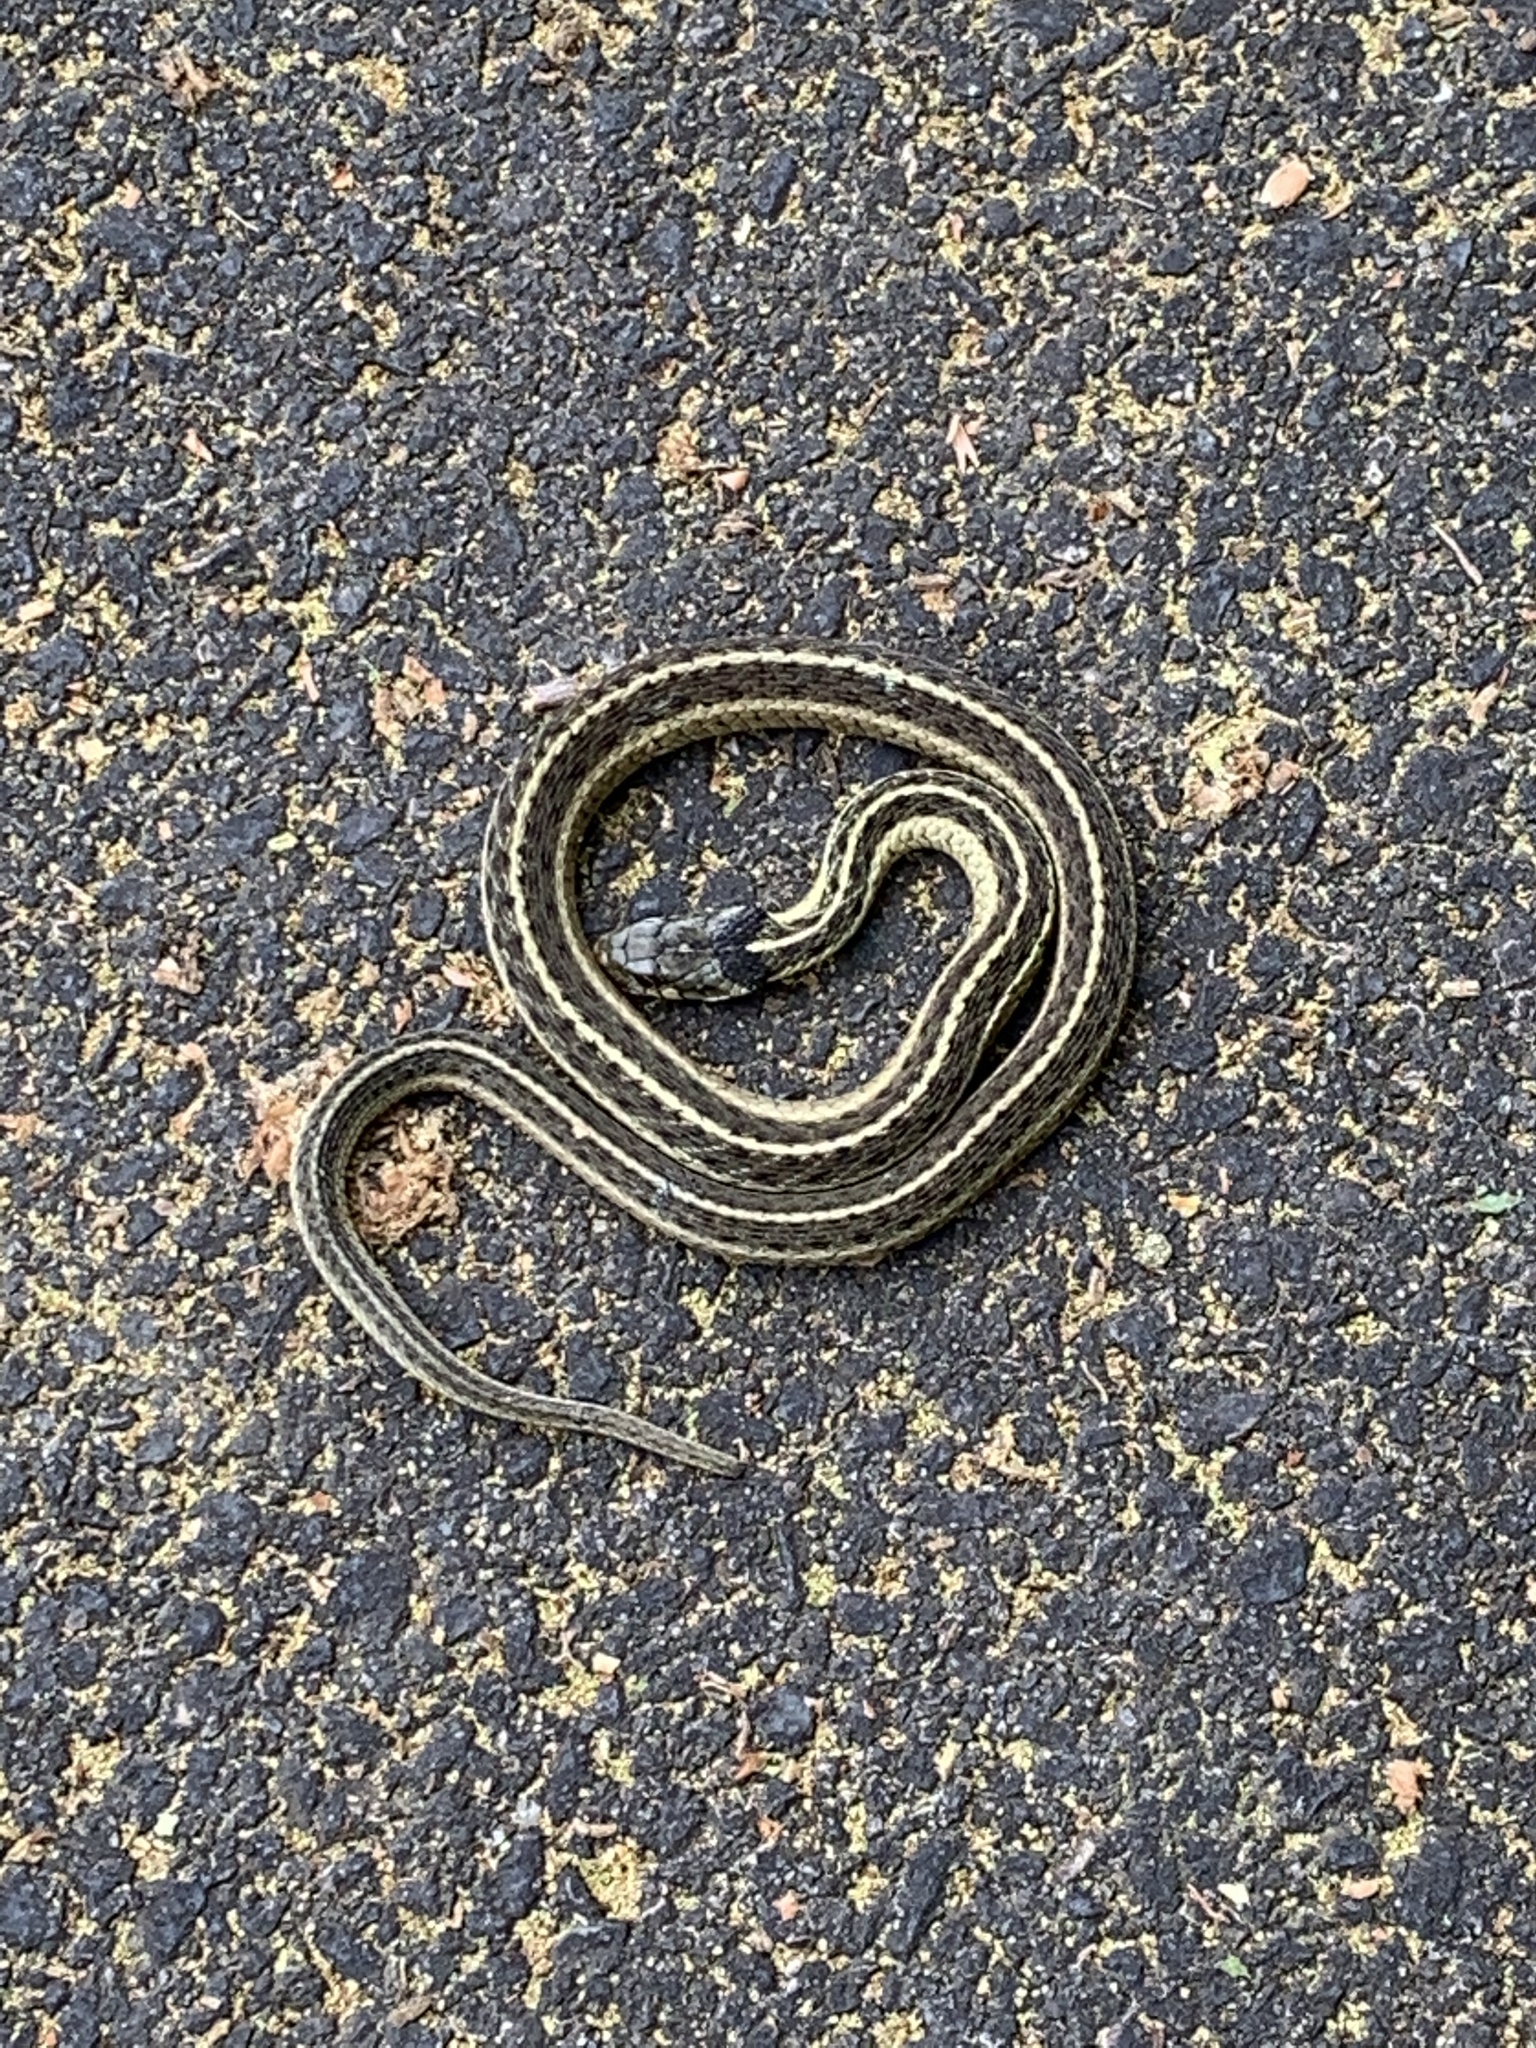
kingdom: Animalia
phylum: Chordata
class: Squamata
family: Colubridae
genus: Thamnophis
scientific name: Thamnophis sirtalis
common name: Common garter snake
